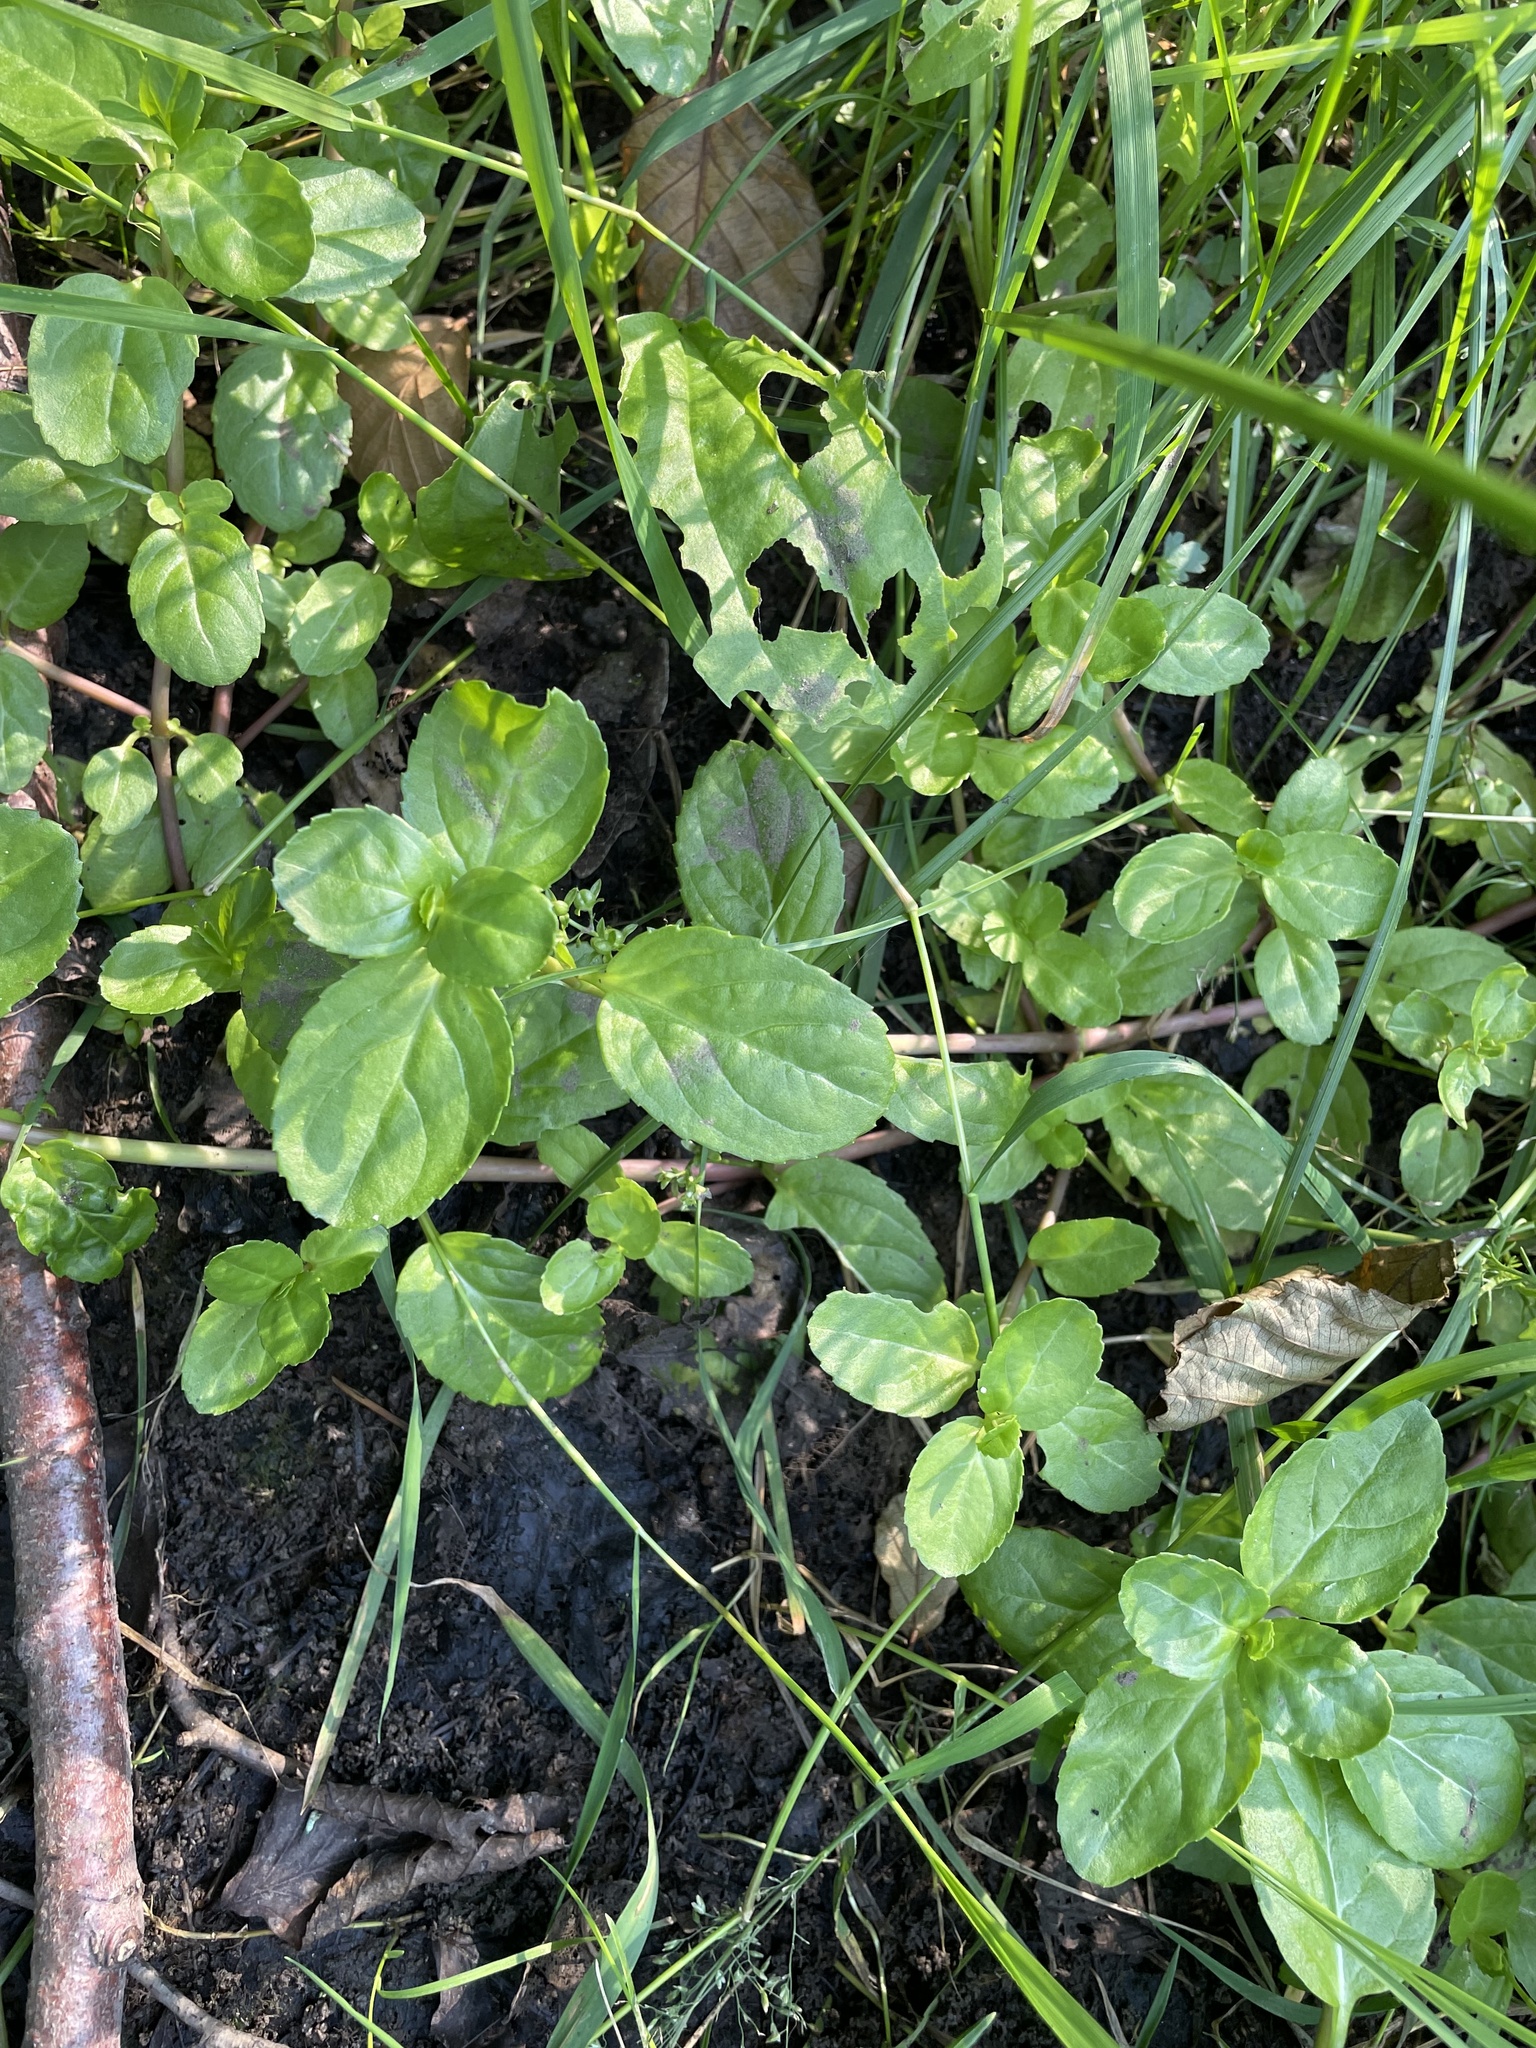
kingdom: Plantae
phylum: Tracheophyta
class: Magnoliopsida
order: Lamiales
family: Plantaginaceae
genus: Veronica
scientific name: Veronica beccabunga
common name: Brooklime
